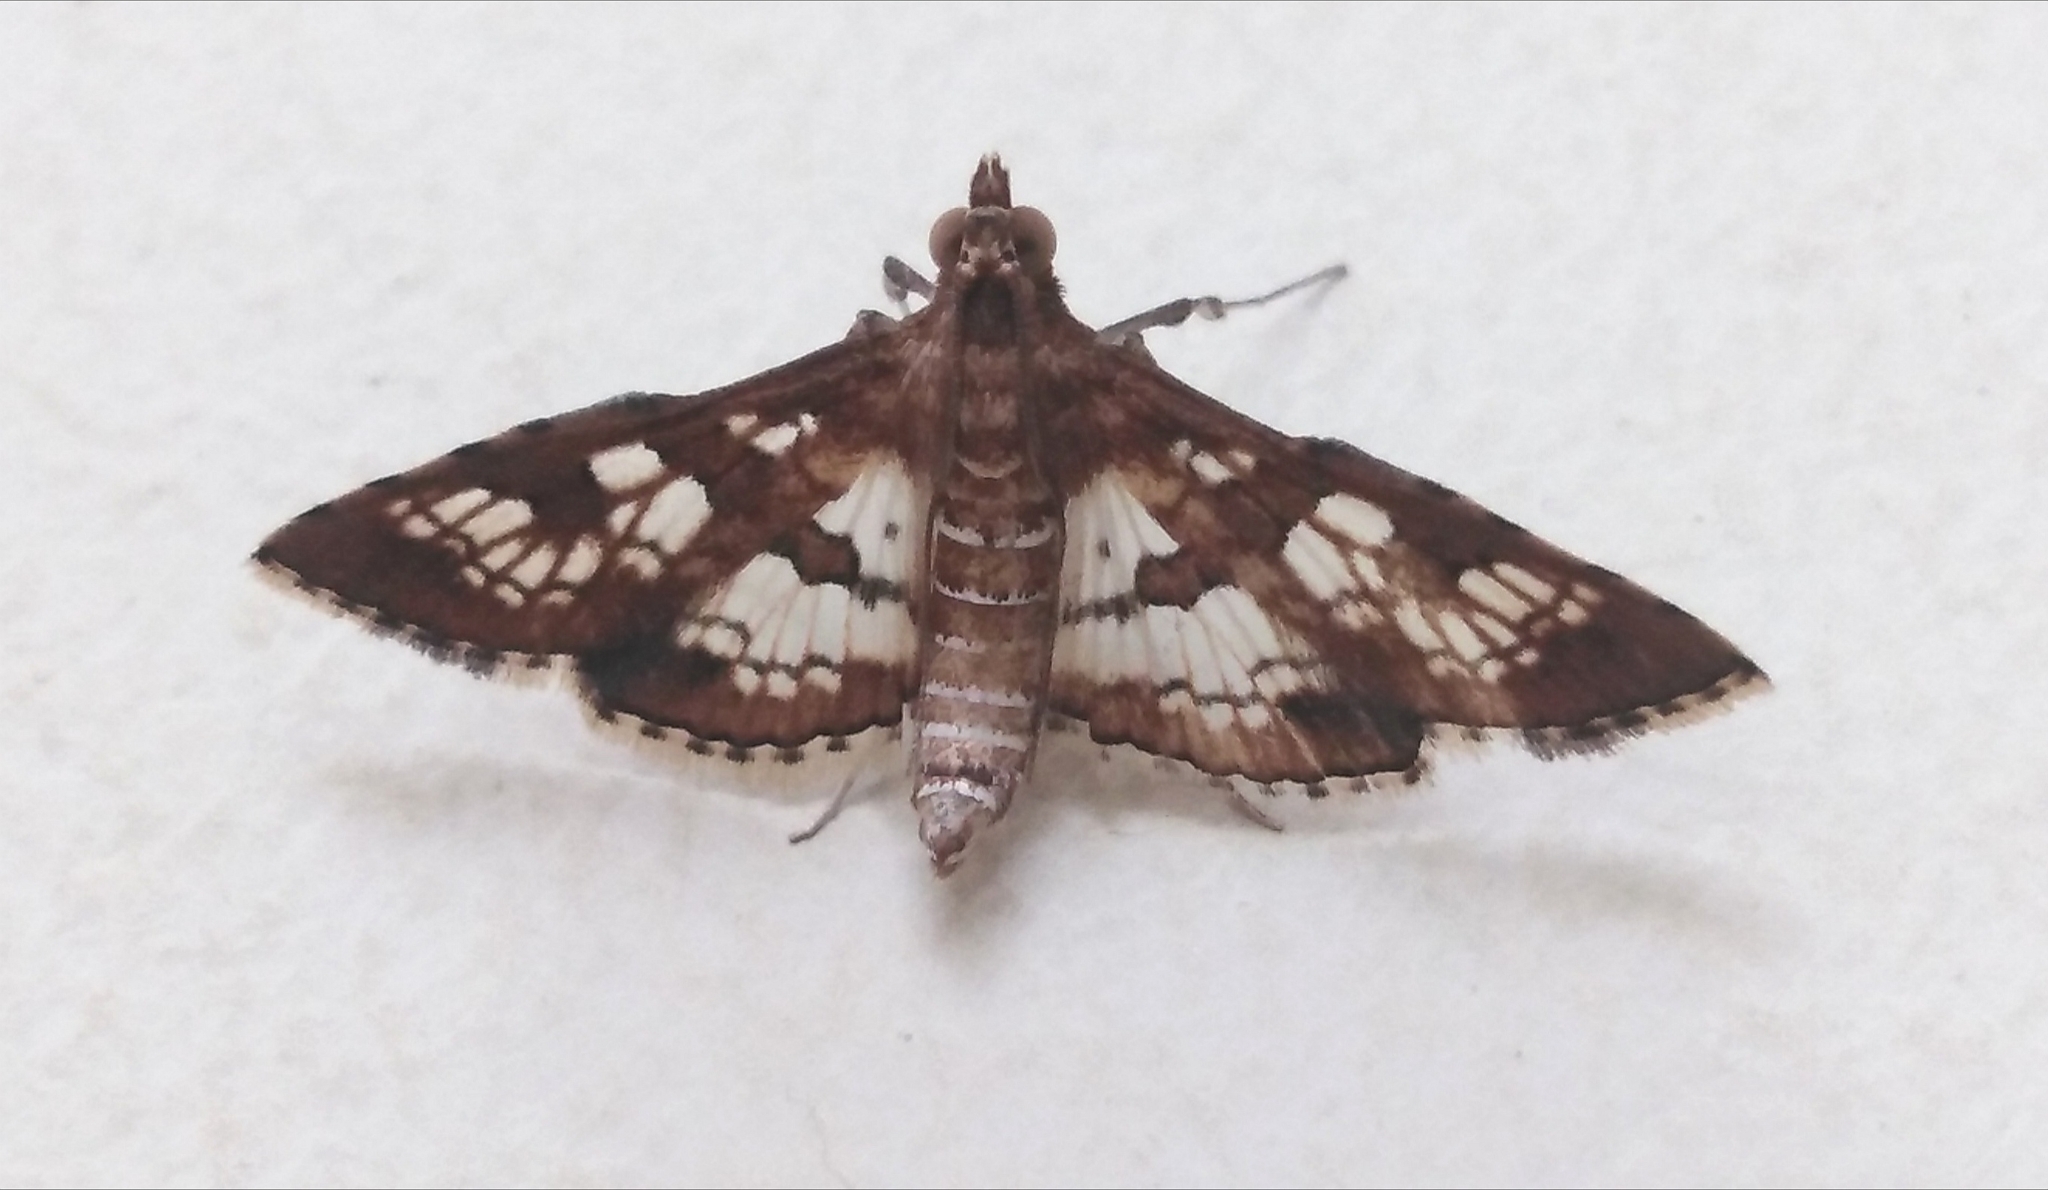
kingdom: Animalia
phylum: Arthropoda
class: Insecta
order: Lepidoptera
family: Crambidae
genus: Sameodes
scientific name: Sameodes cancellalis
